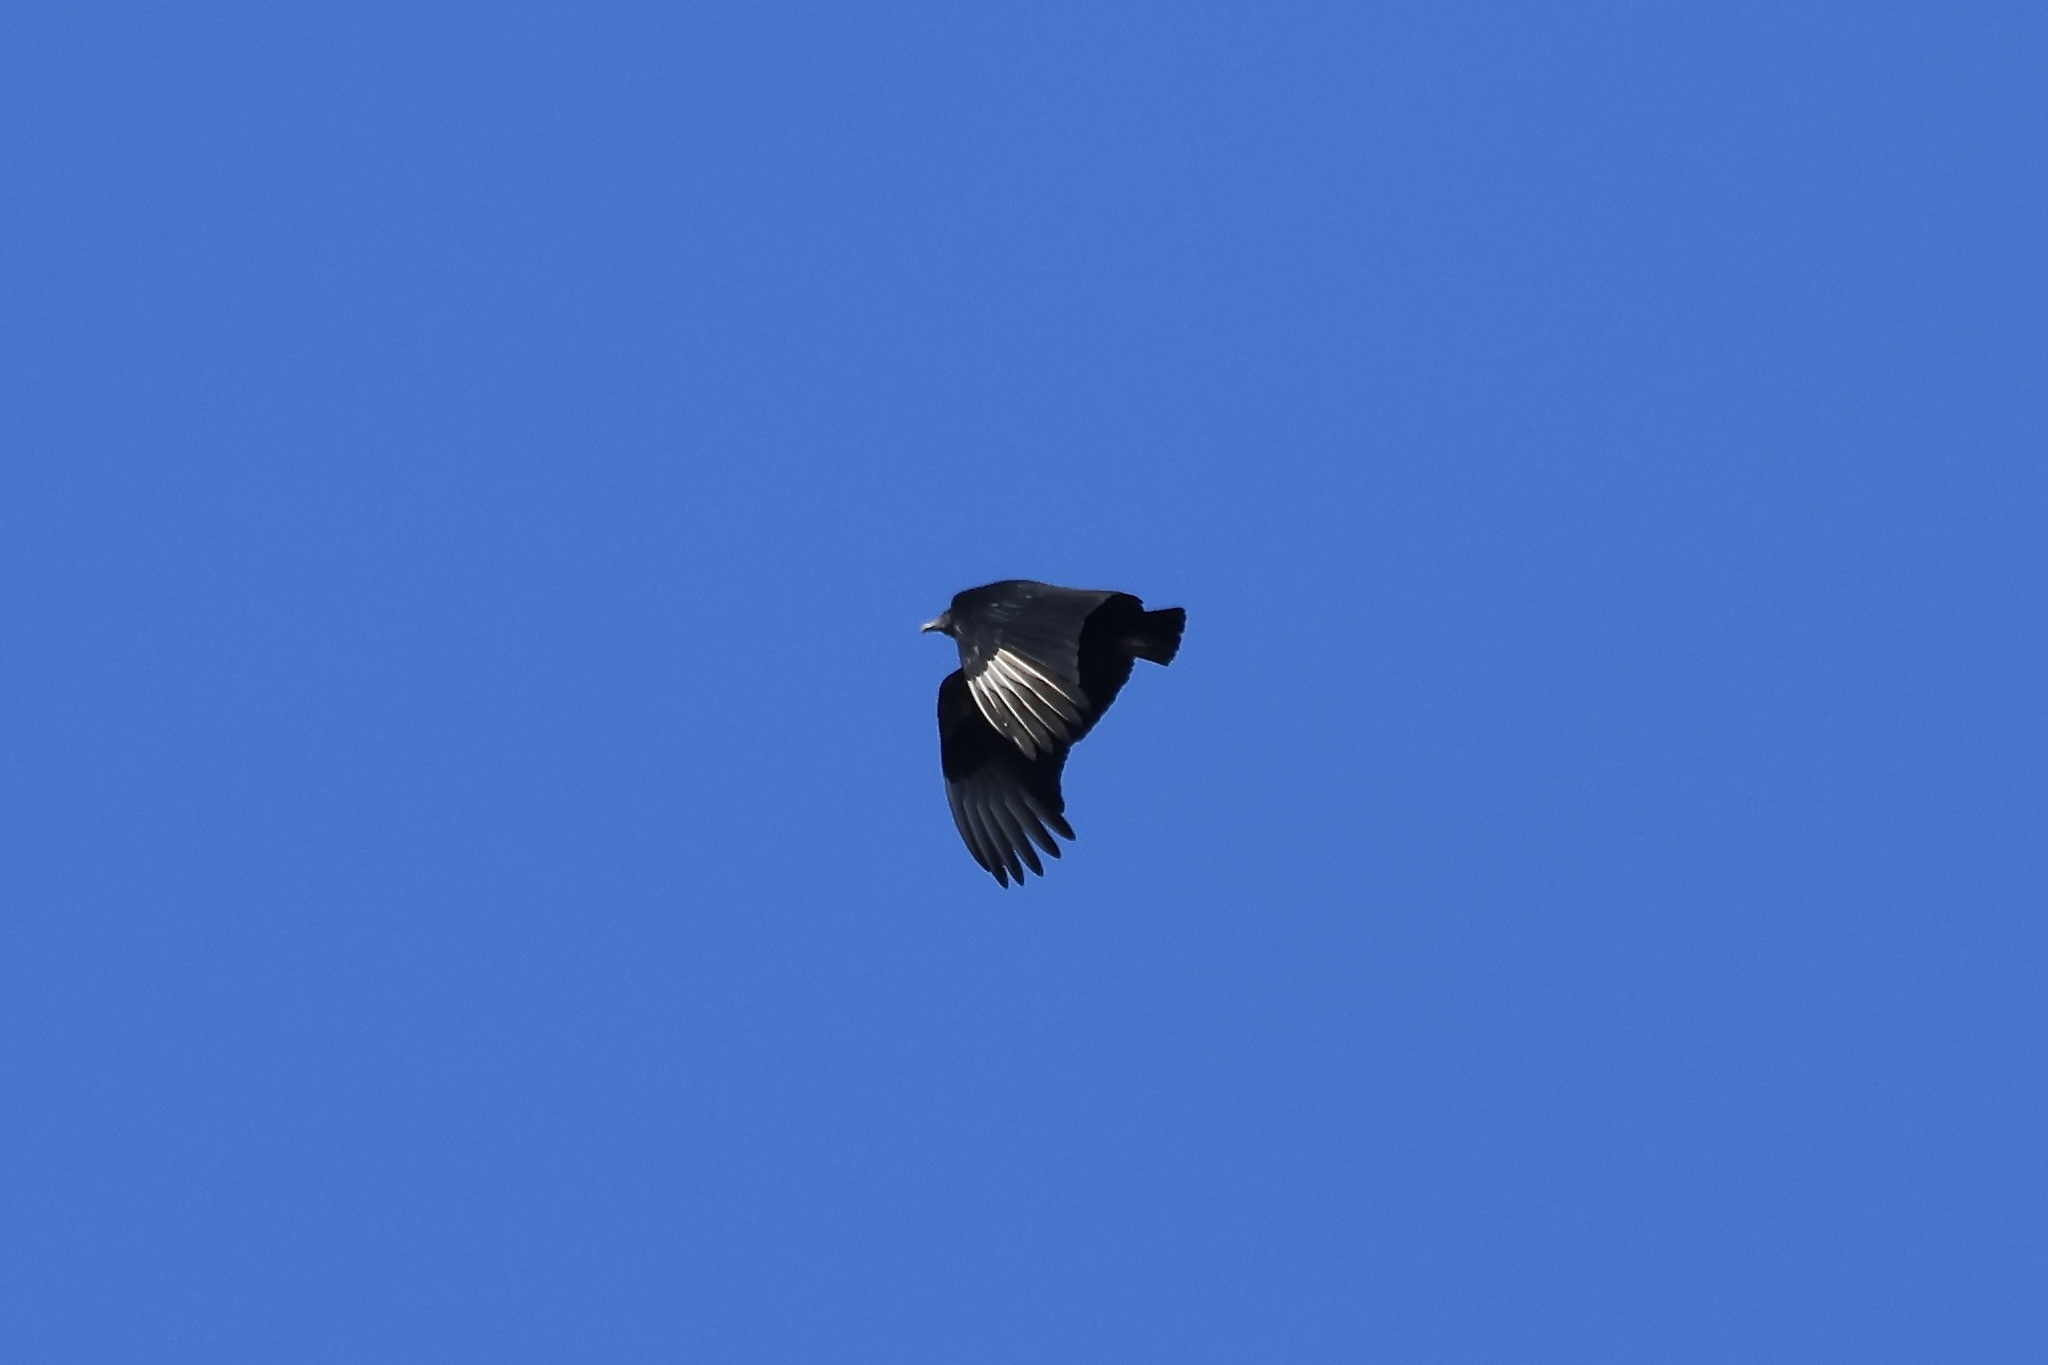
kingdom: Animalia
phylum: Chordata
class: Aves
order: Accipitriformes
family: Cathartidae
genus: Coragyps
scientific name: Coragyps atratus
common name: Black vulture
